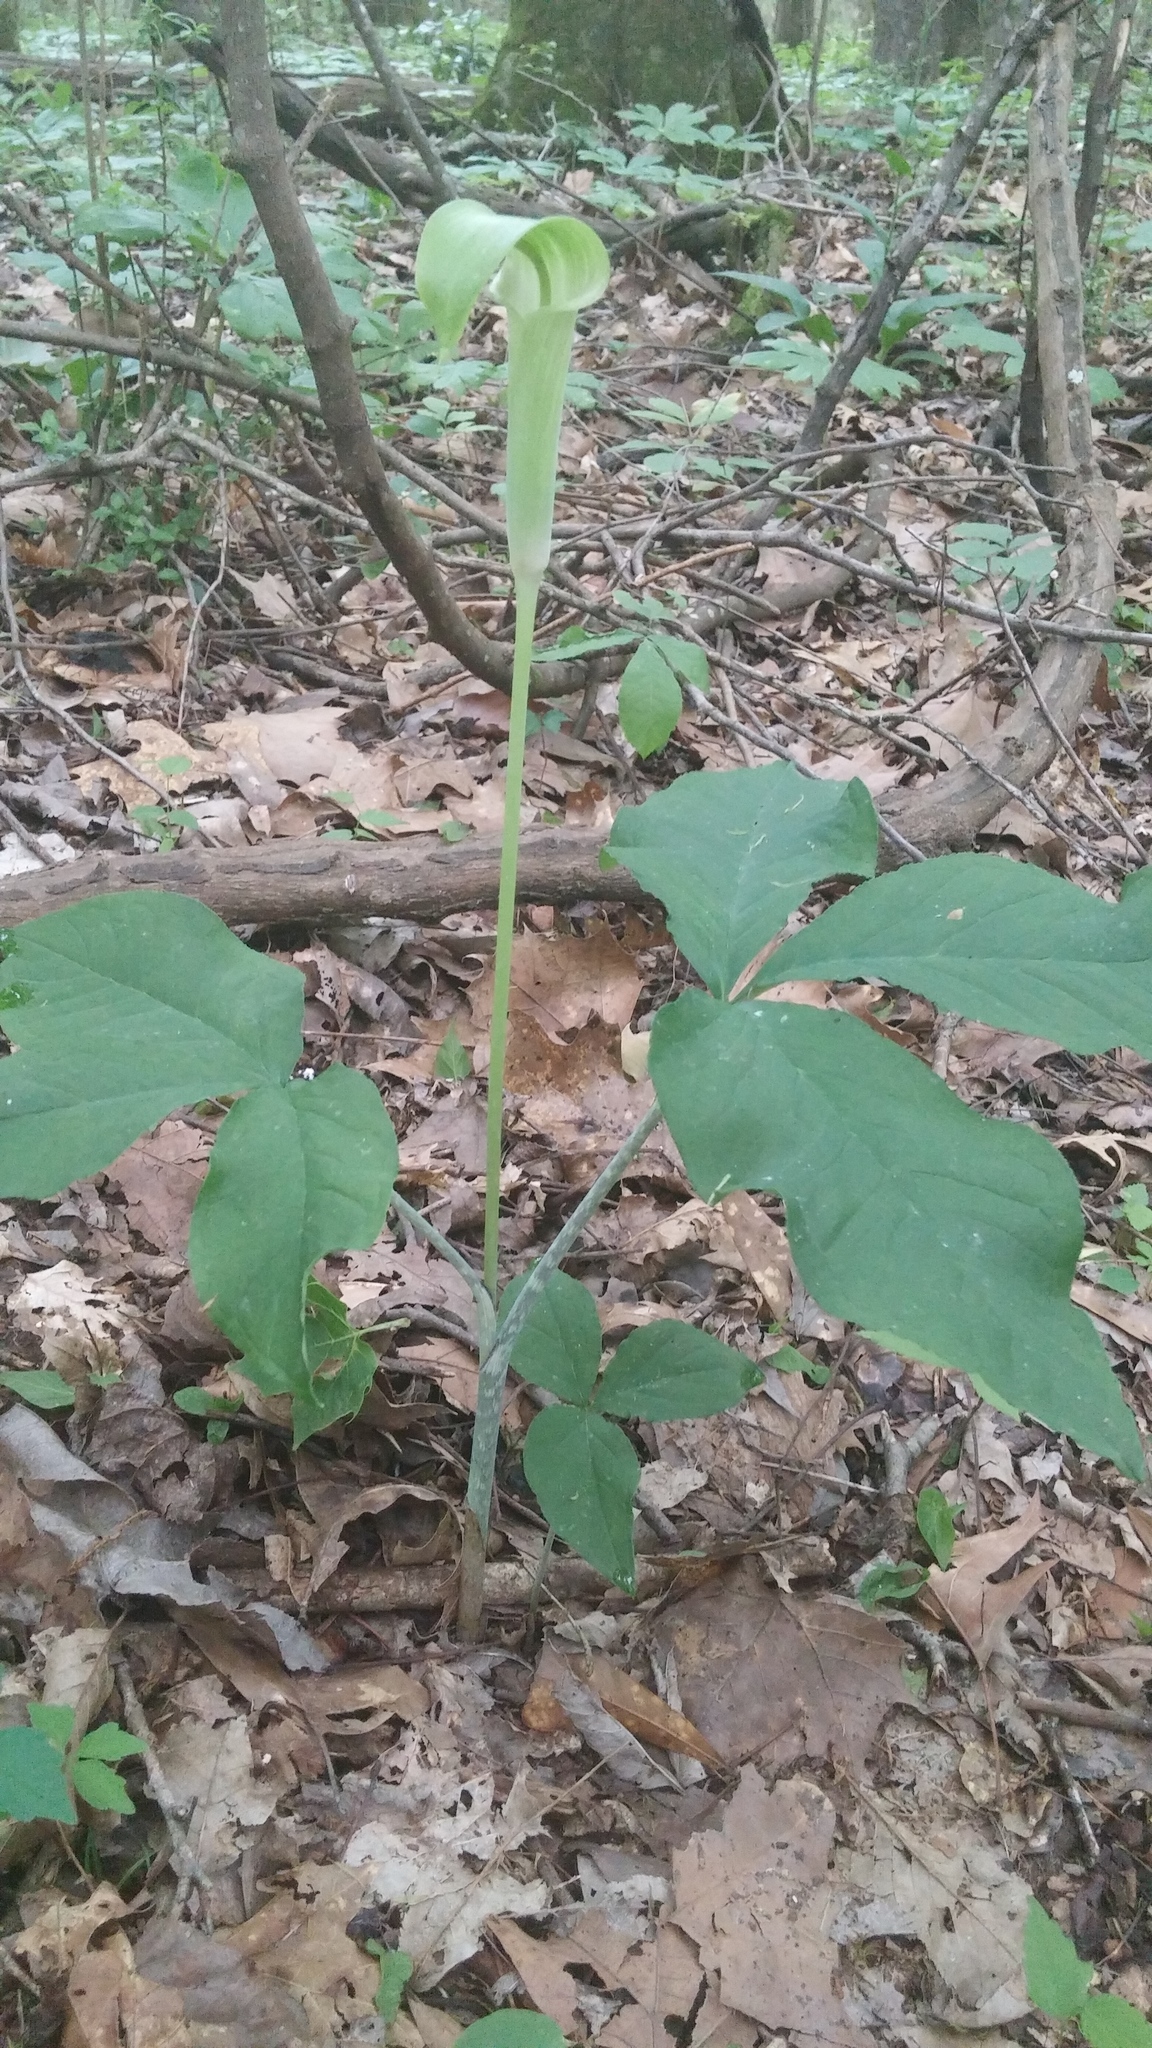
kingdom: Plantae
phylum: Tracheophyta
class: Liliopsida
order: Alismatales
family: Araceae
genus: Arisaema
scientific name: Arisaema quinatum
